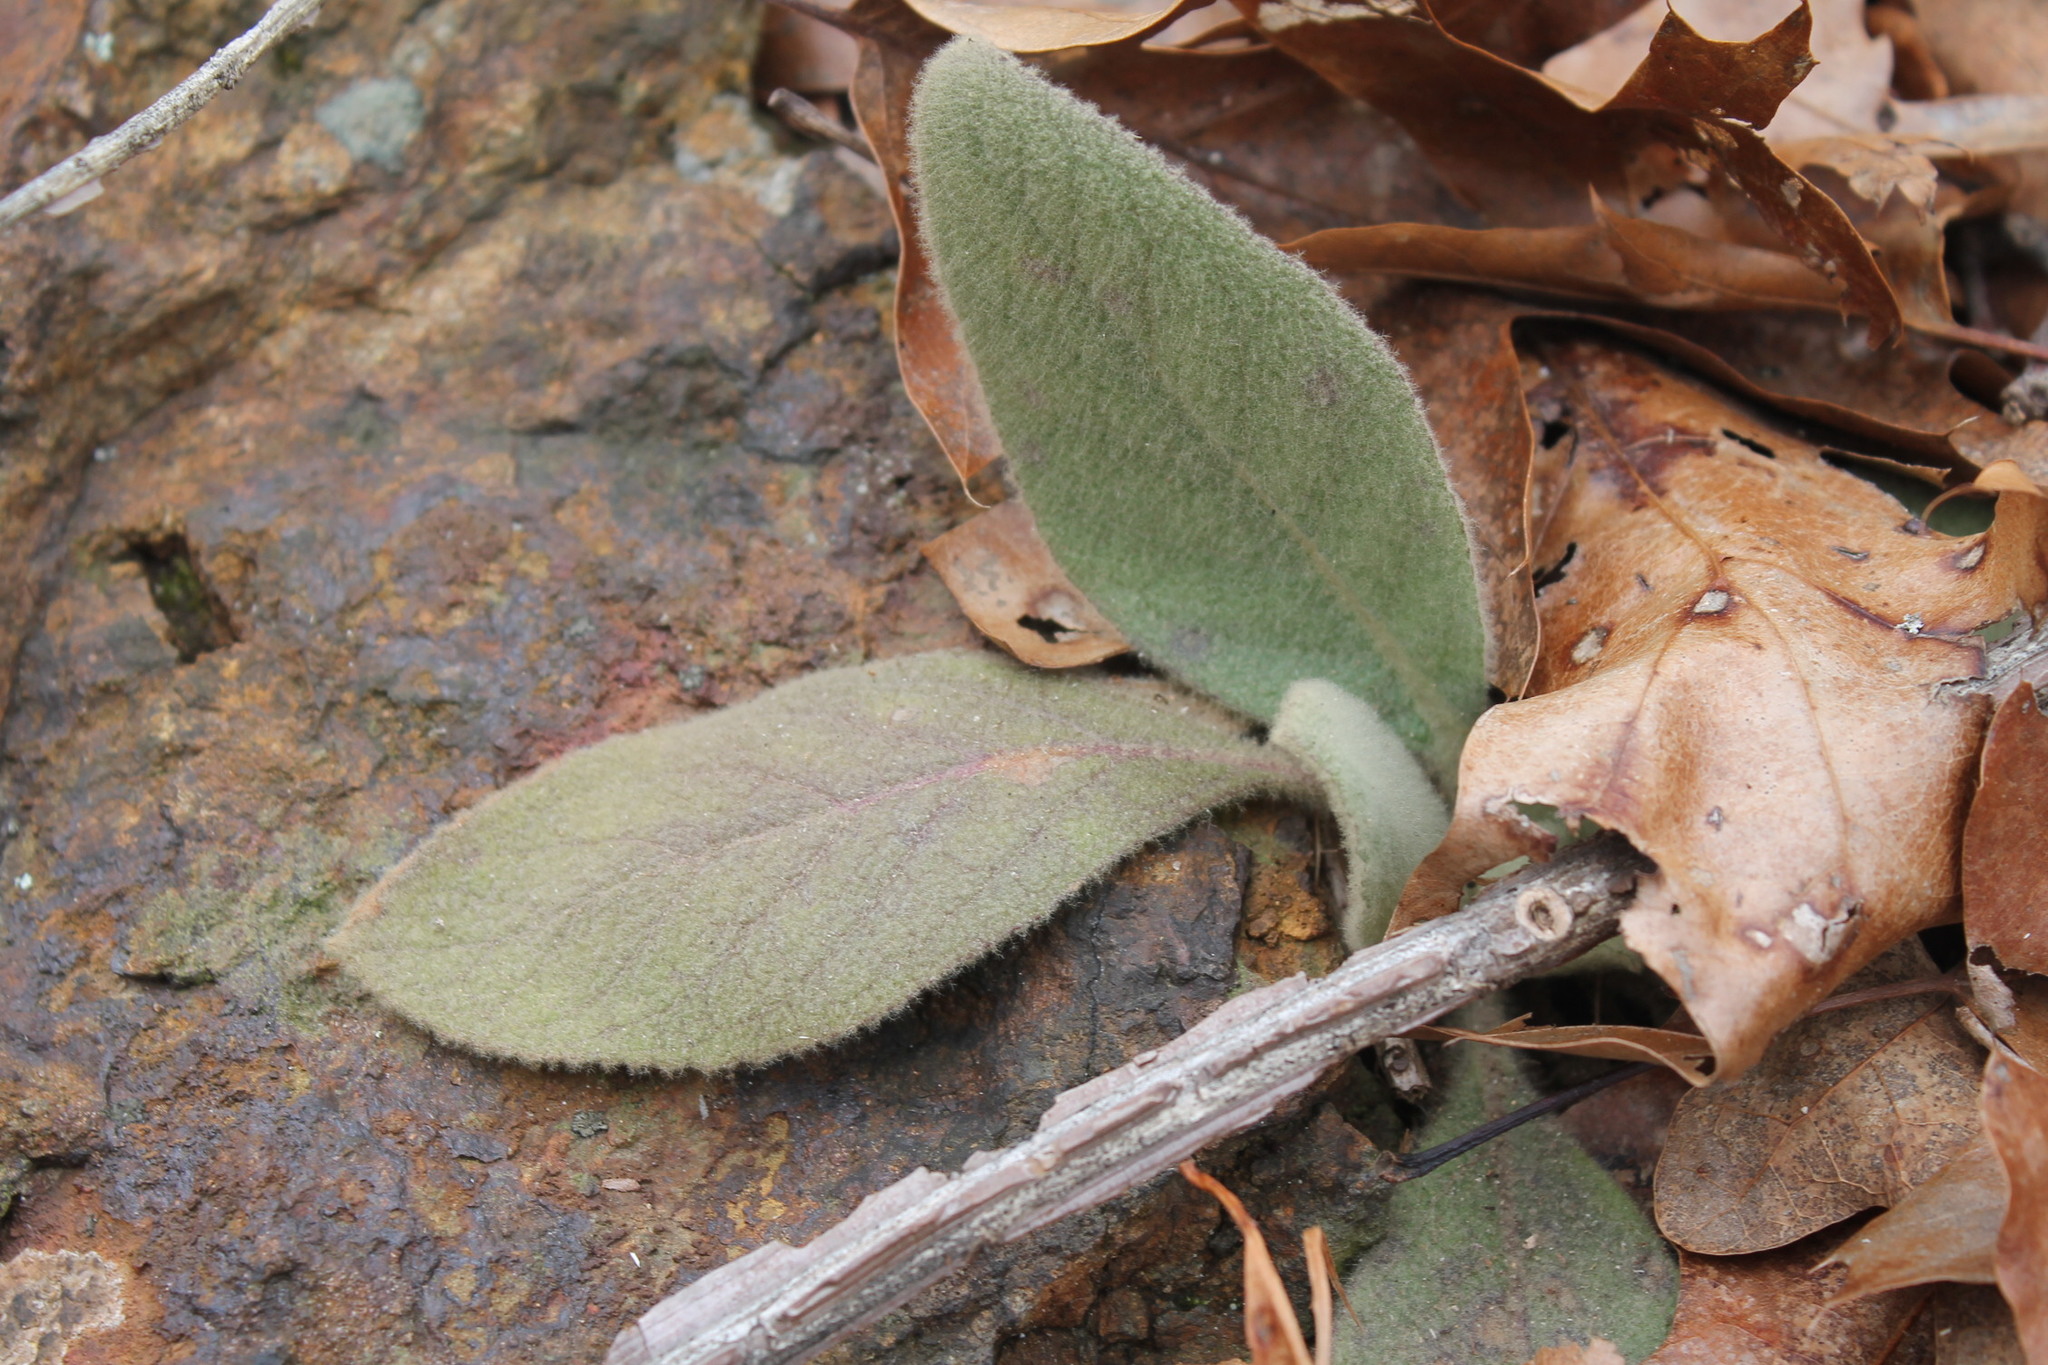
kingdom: Plantae
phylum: Tracheophyta
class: Magnoliopsida
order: Lamiales
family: Scrophulariaceae
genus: Verbascum
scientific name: Verbascum thapsus
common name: Common mullein
